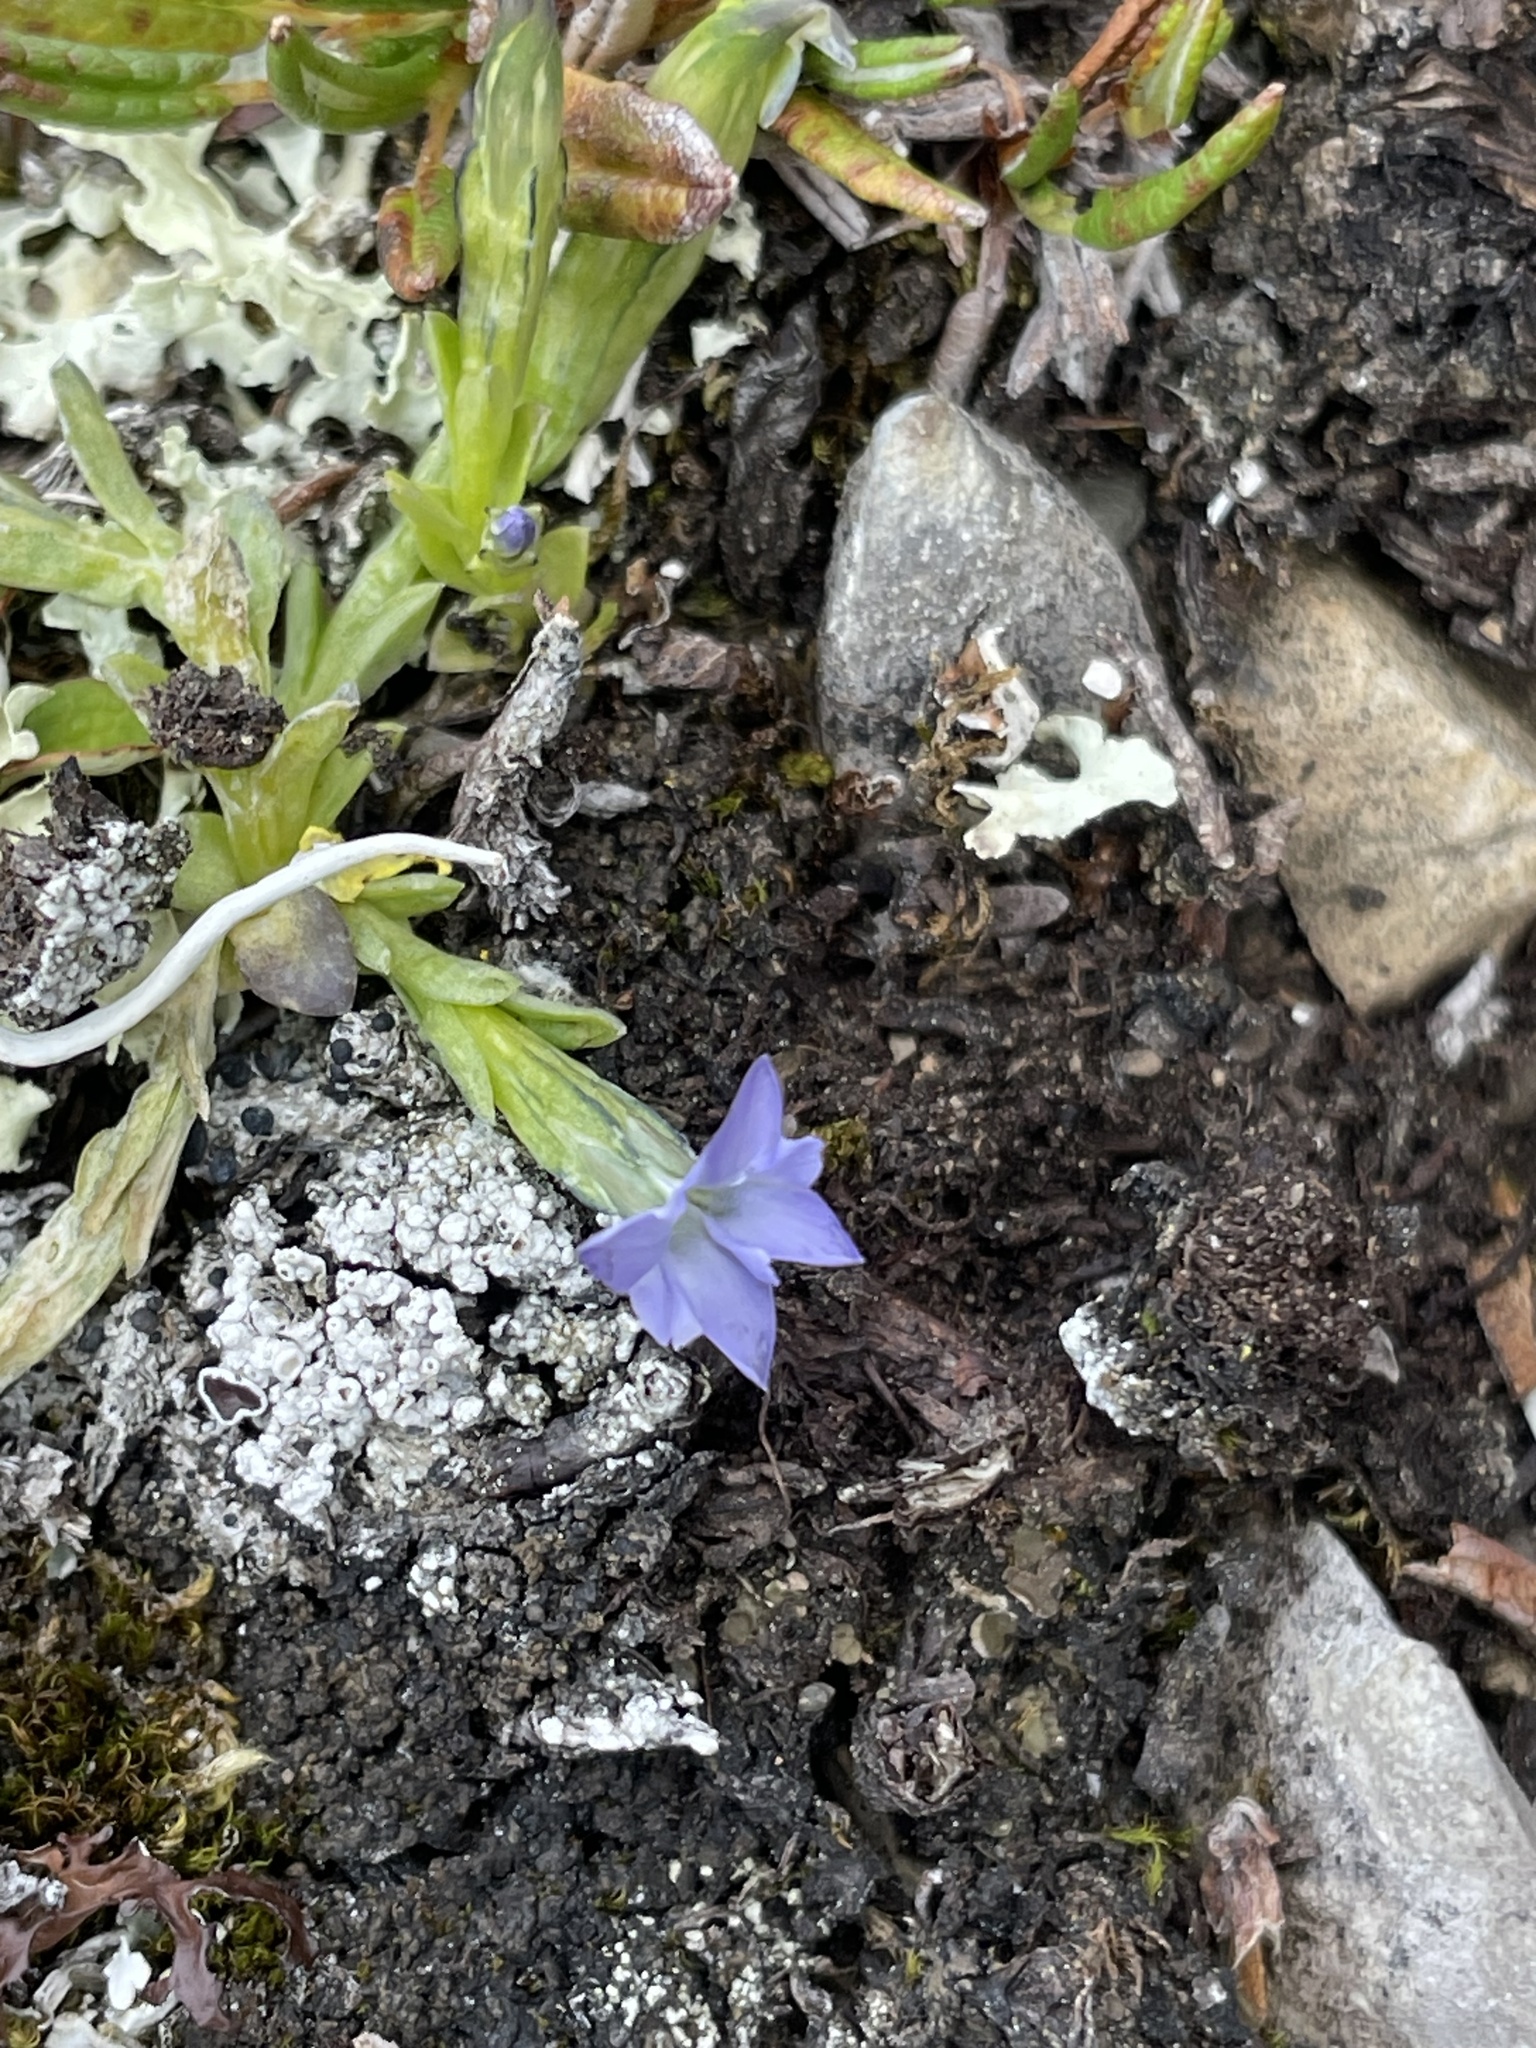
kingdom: Plantae
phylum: Tracheophyta
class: Magnoliopsida
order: Gentianales
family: Gentianaceae
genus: Gentiana
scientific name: Gentiana prostrata
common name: Moss gentian
